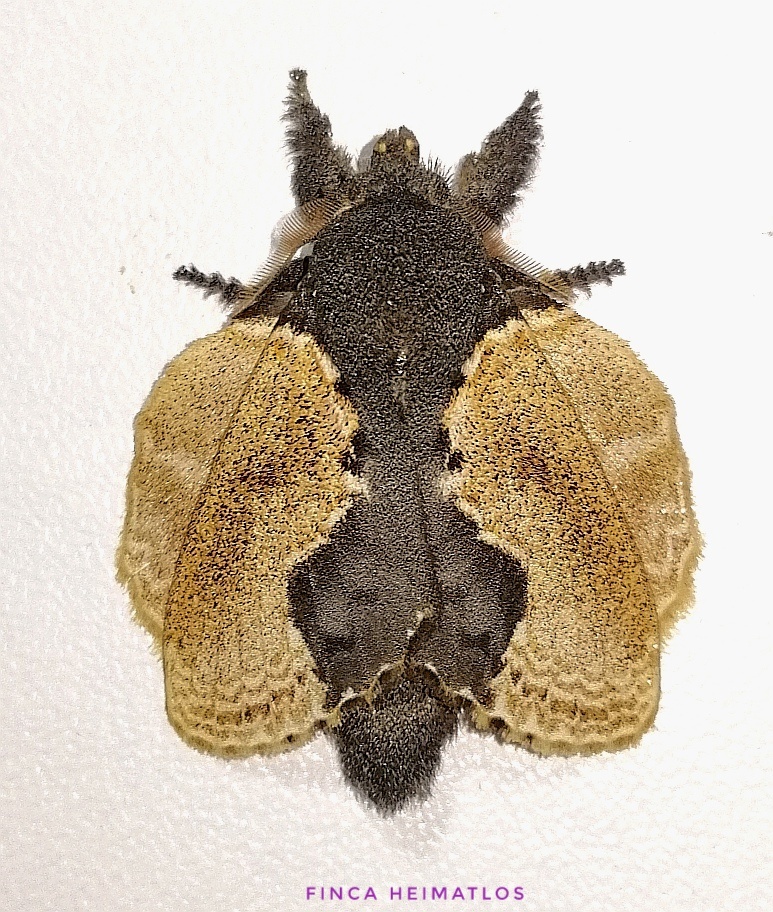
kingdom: Animalia
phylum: Arthropoda
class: Insecta
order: Lepidoptera
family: Lasiocampidae
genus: Euglyphis
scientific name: Euglyphis marna
